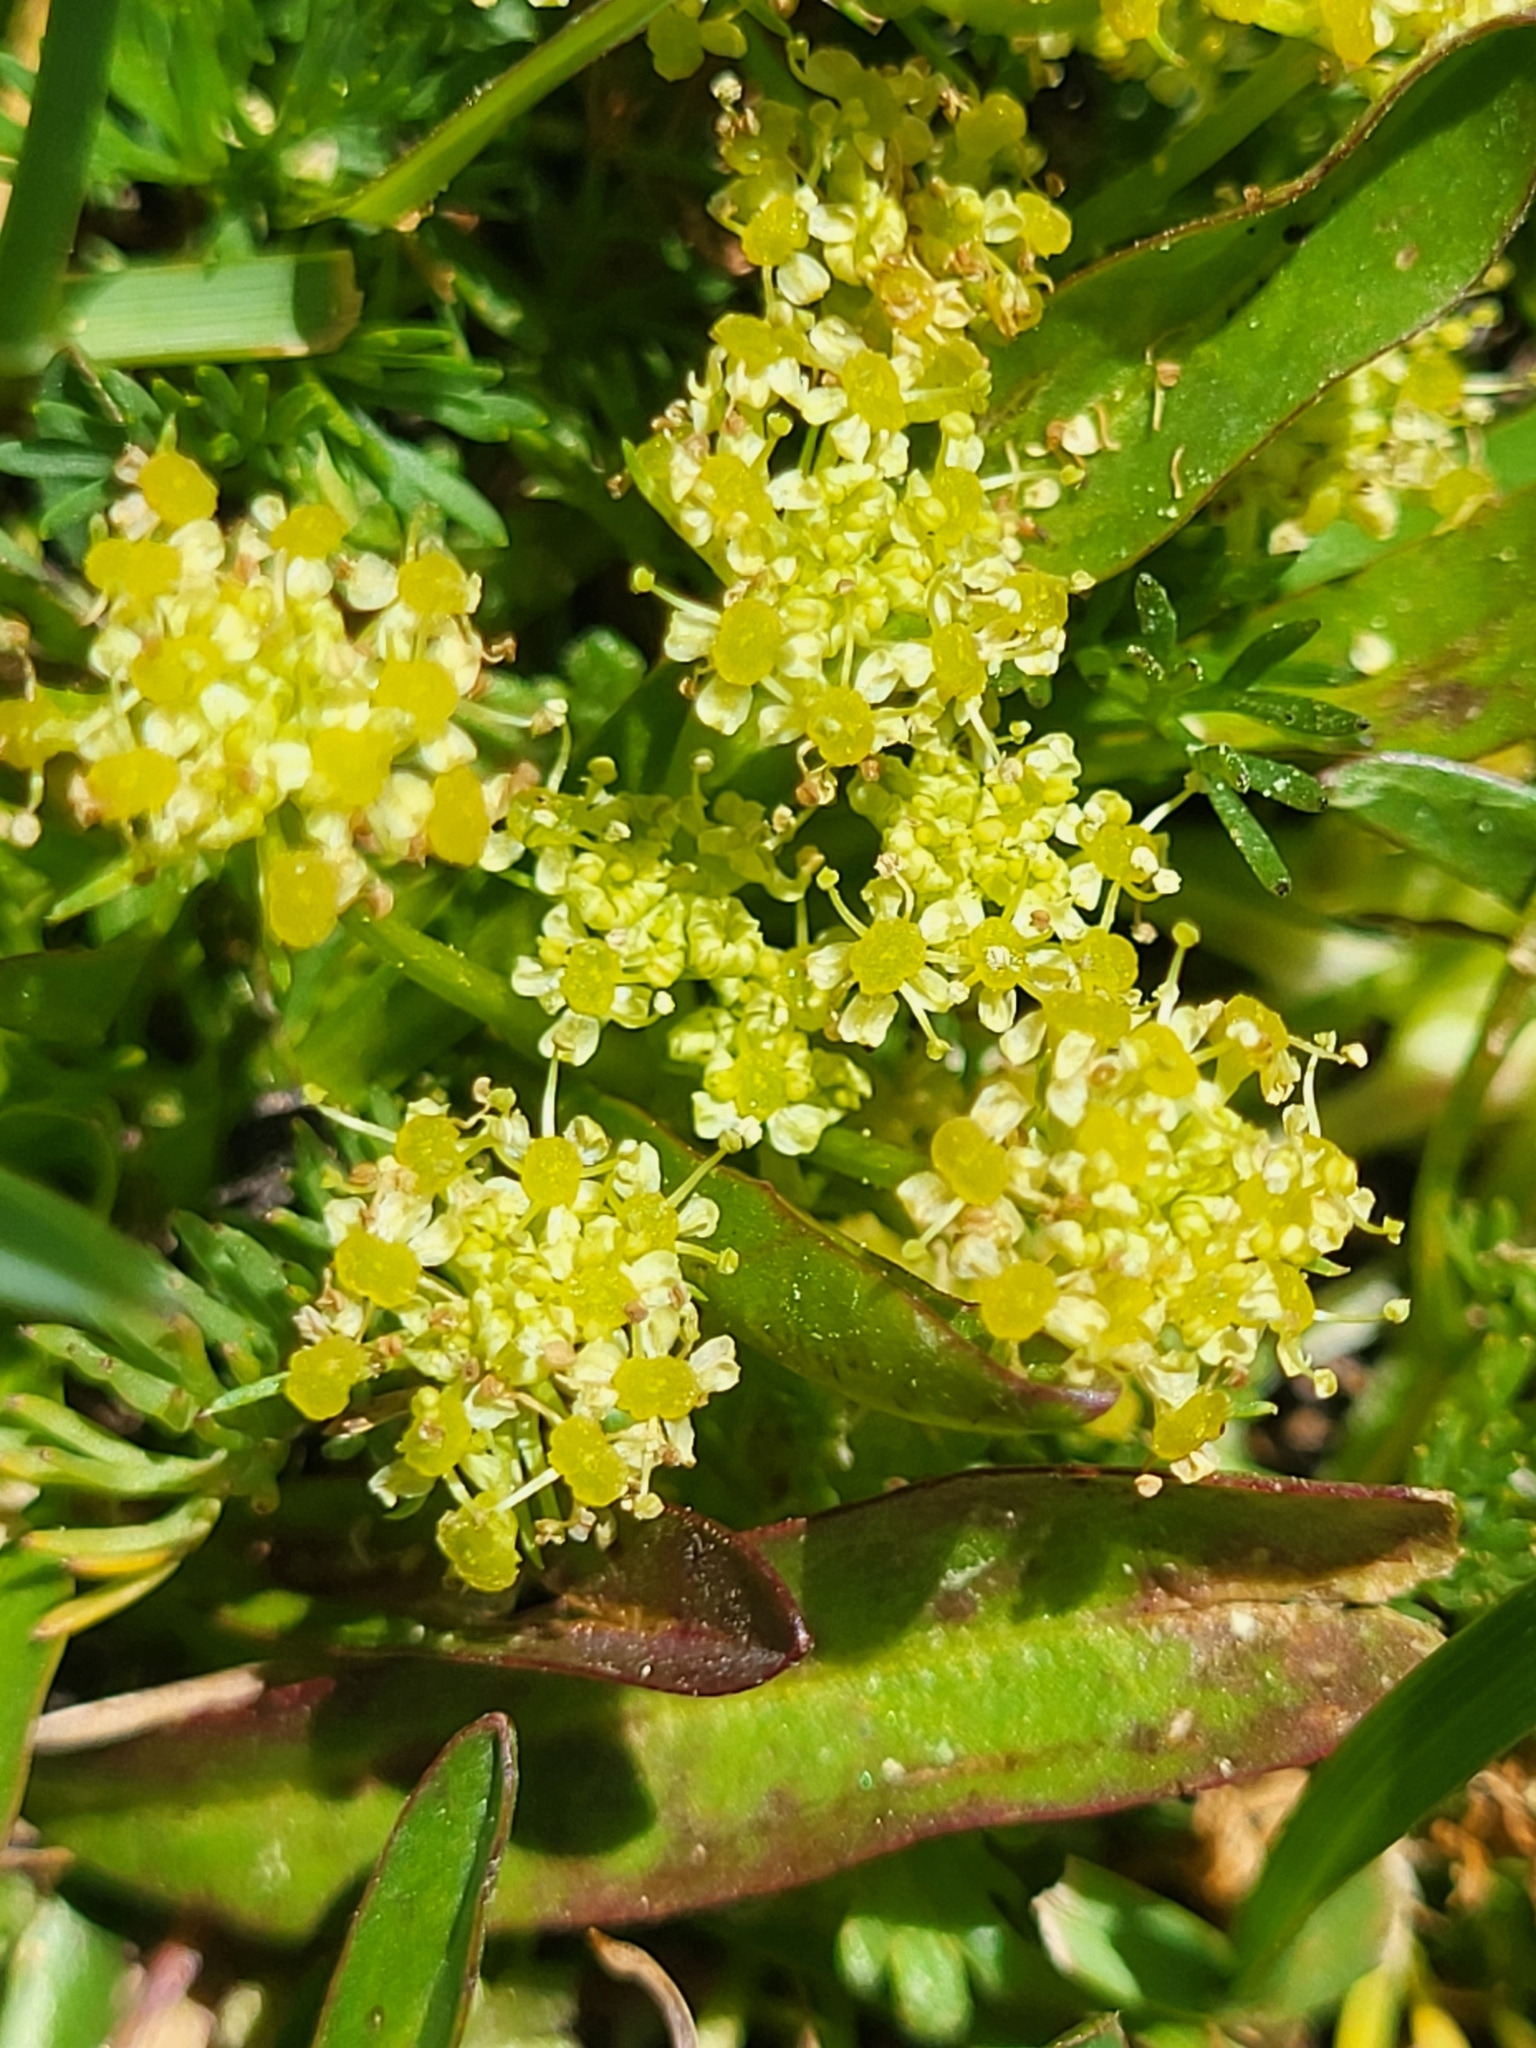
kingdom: Plantae
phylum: Tracheophyta
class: Magnoliopsida
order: Apiales
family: Apiaceae
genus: Chamaesciadium
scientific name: Chamaesciadium acaule
